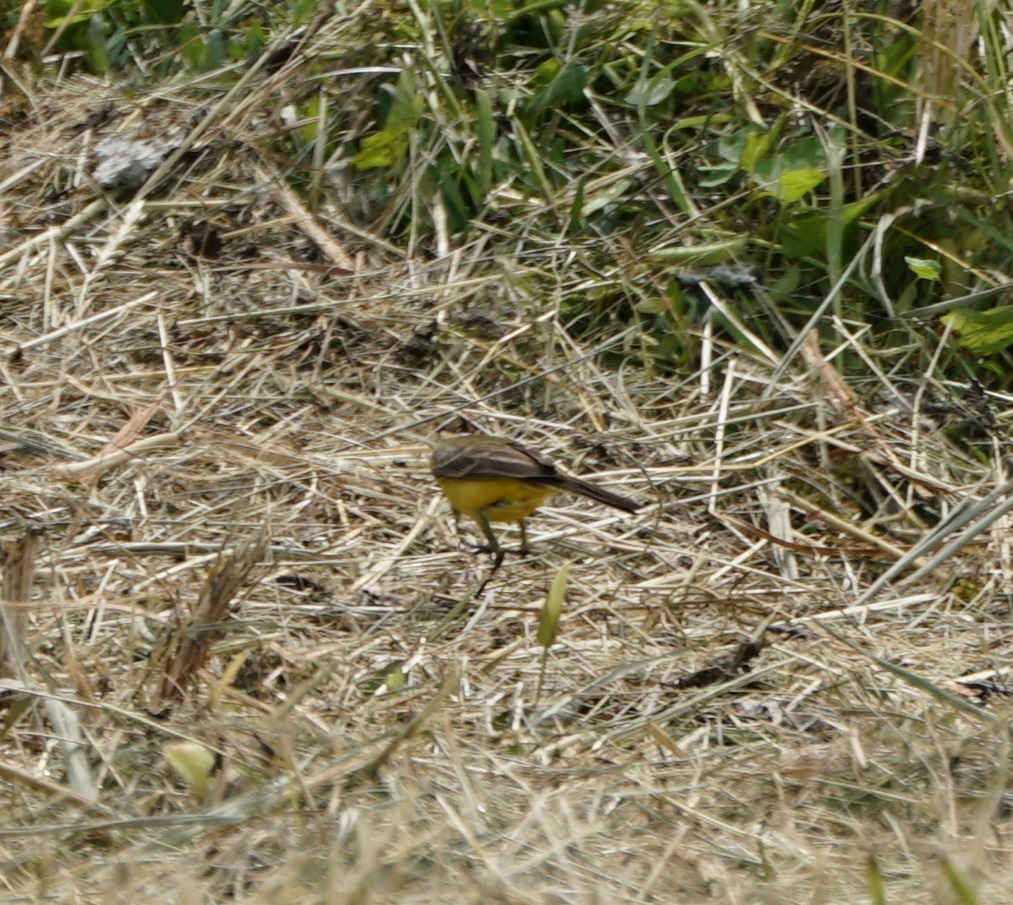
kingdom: Animalia
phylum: Chordata
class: Aves
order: Passeriformes
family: Motacillidae
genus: Motacilla
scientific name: Motacilla flava
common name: Western yellow wagtail
